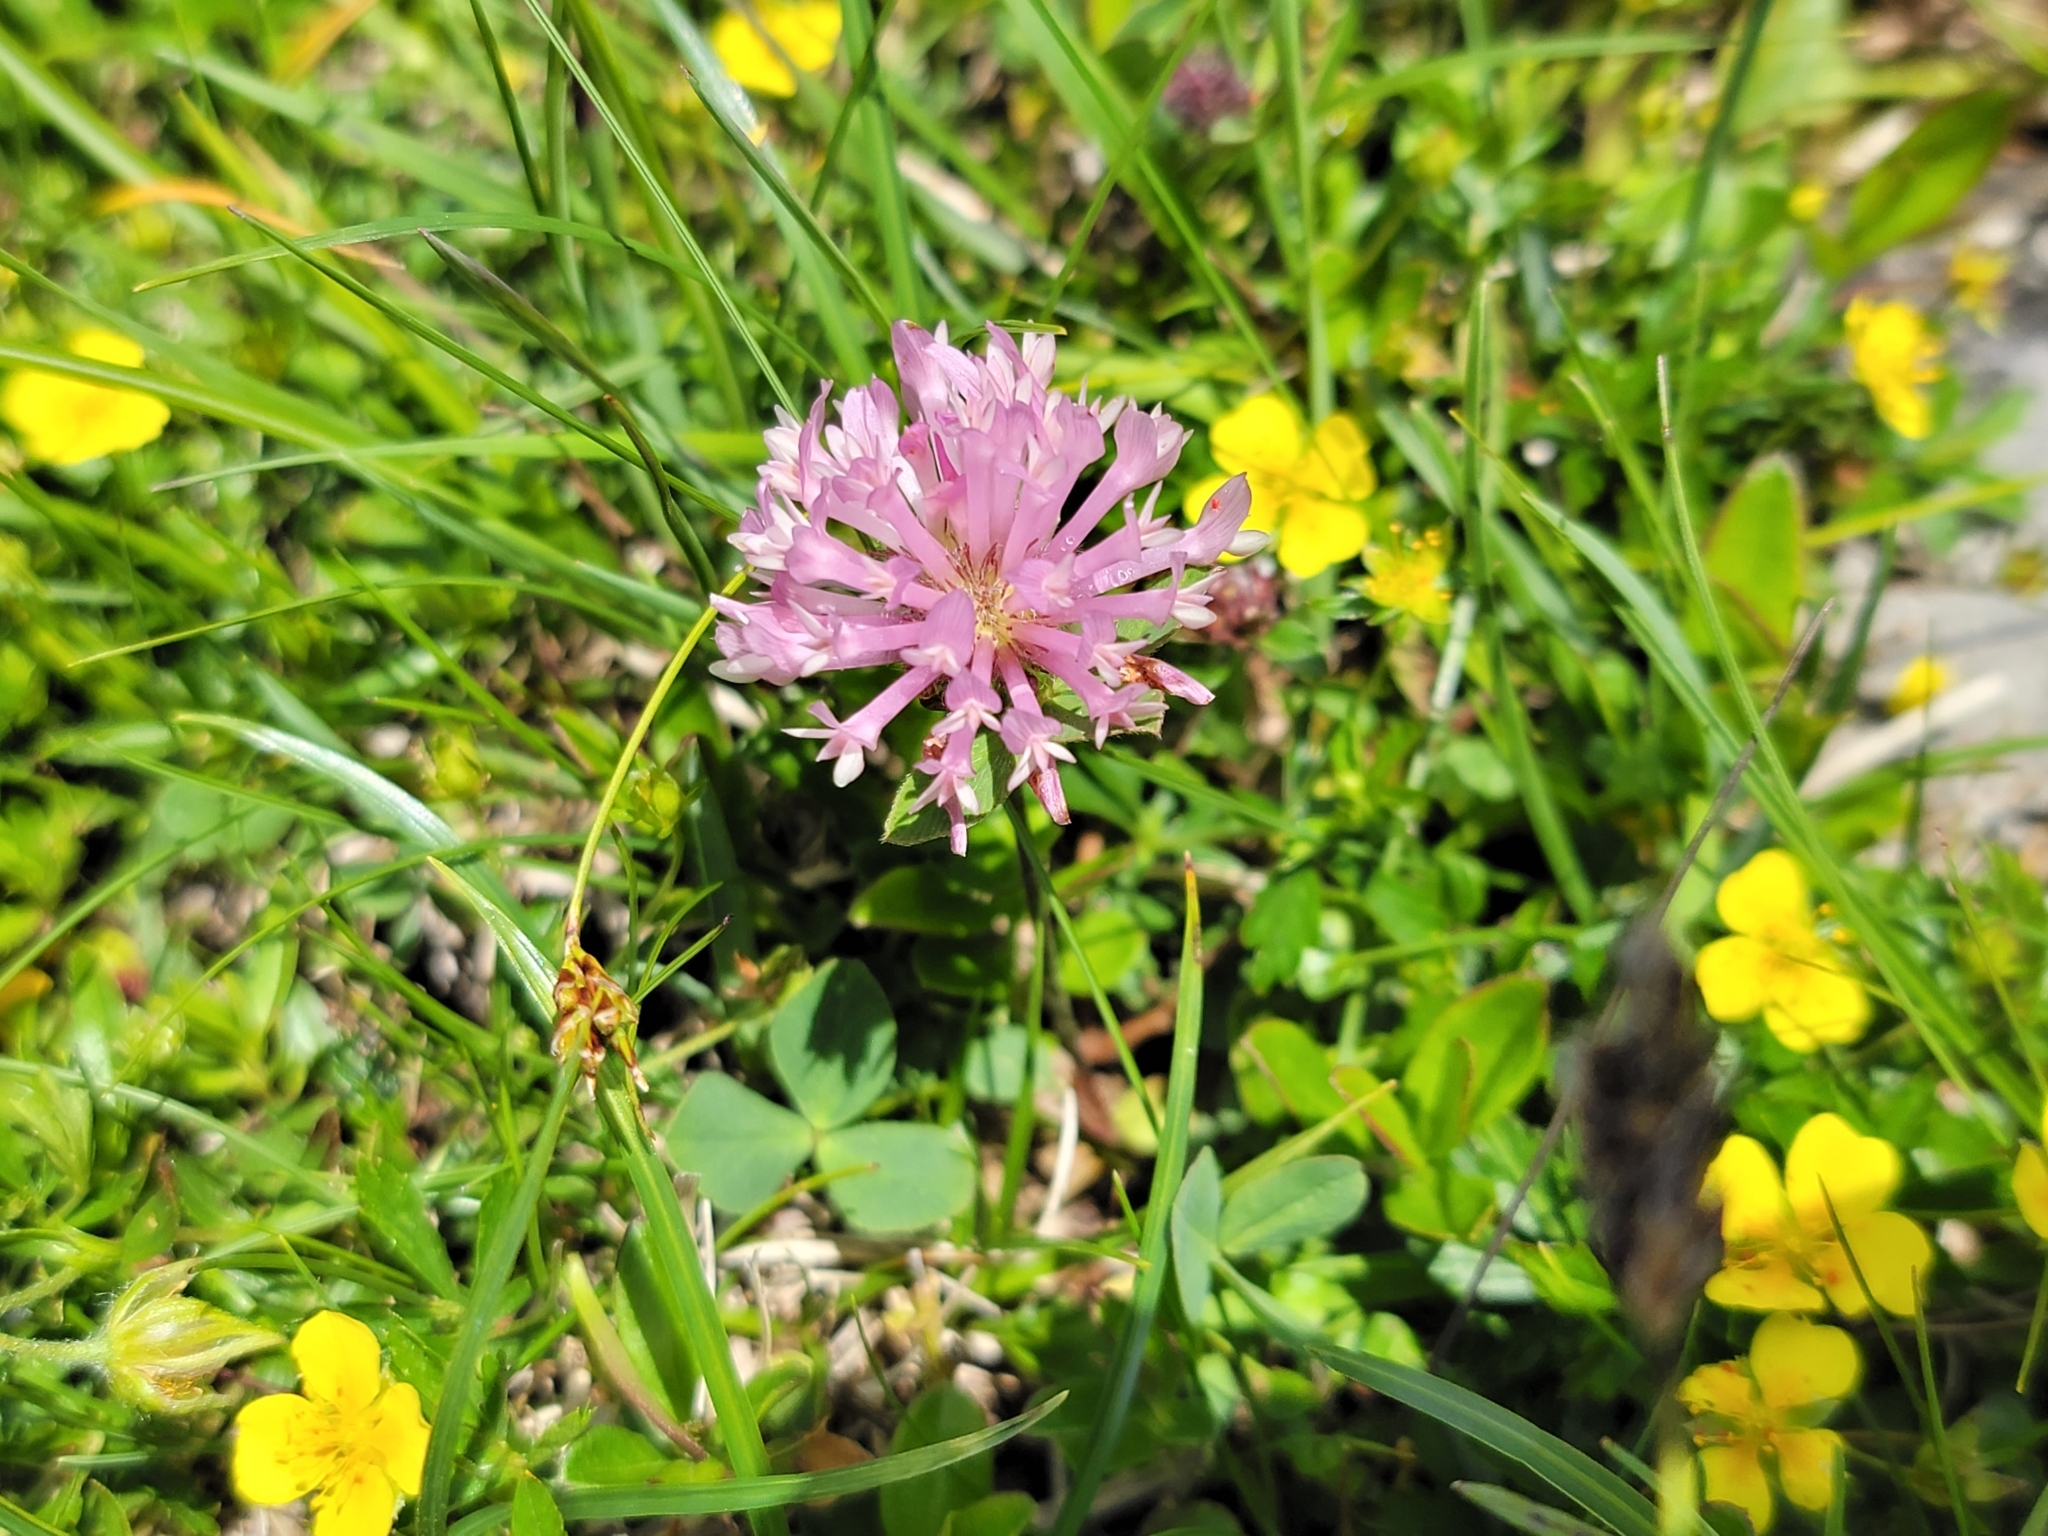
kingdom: Plantae
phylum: Tracheophyta
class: Magnoliopsida
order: Fabales
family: Fabaceae
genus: Trifolium
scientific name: Trifolium pratense
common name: Red clover
